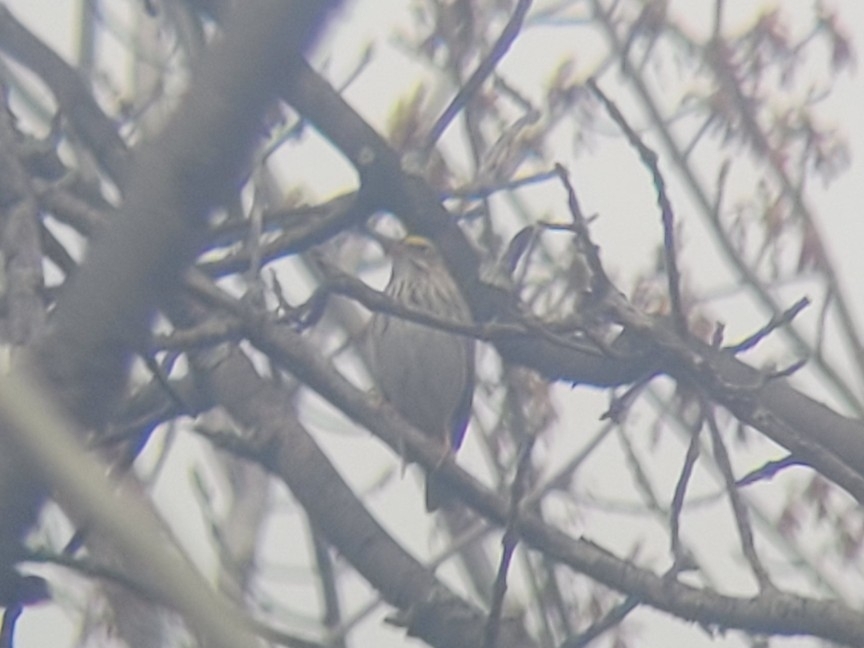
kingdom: Animalia
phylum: Chordata
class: Aves
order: Passeriformes
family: Passerellidae
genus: Passerculus
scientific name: Passerculus sandwichensis
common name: Savannah sparrow
